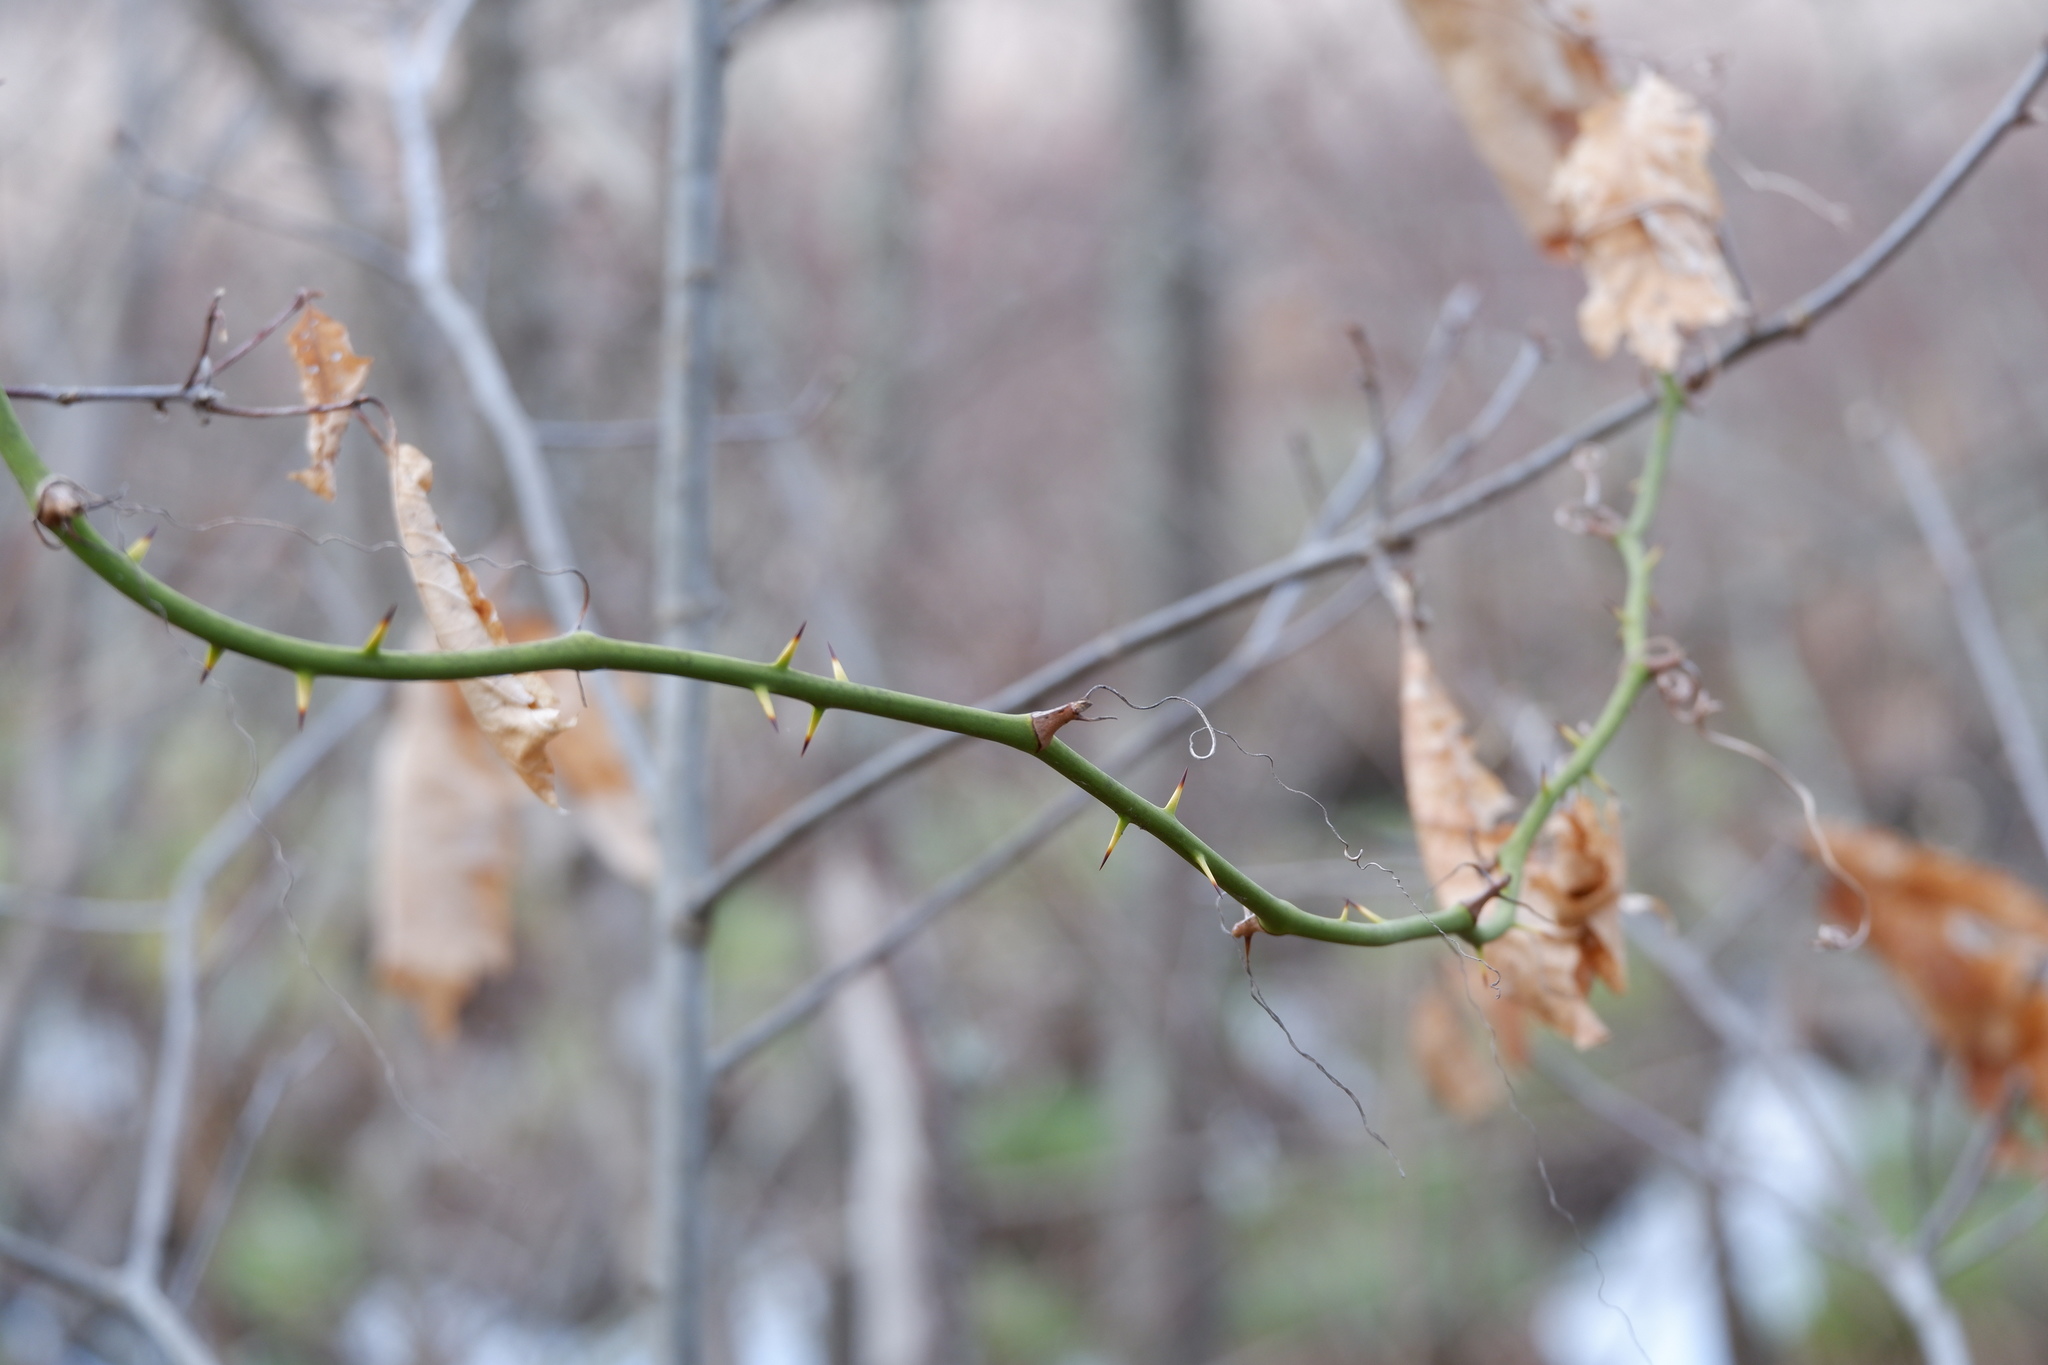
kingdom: Plantae
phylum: Tracheophyta
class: Liliopsida
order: Liliales
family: Smilacaceae
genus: Smilax
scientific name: Smilax rotundifolia
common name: Bullbriar
